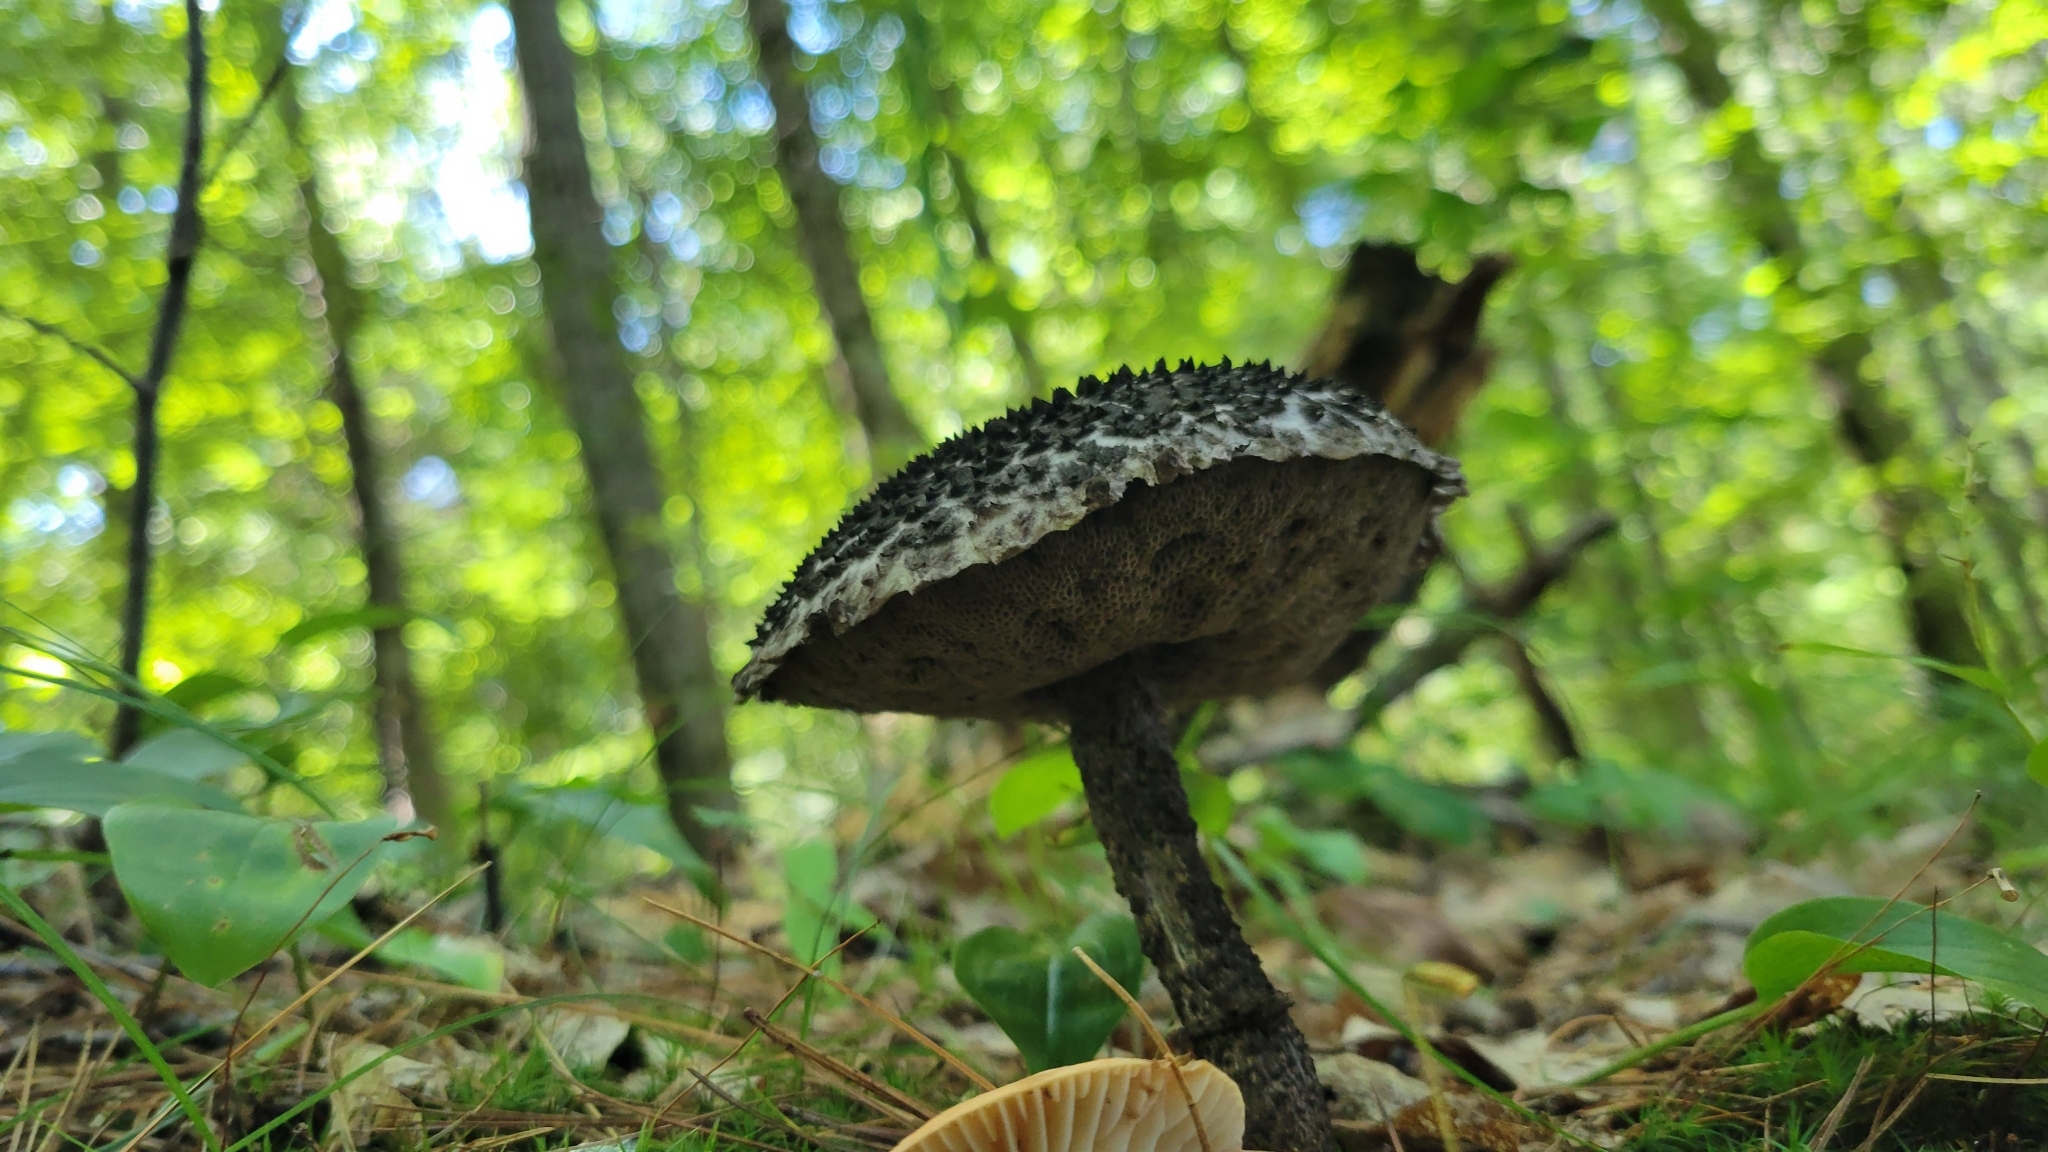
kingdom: Fungi
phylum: Basidiomycota
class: Agaricomycetes
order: Boletales
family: Boletaceae
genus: Strobilomyces
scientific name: Strobilomyces strobilaceus
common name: Old man of the woods
